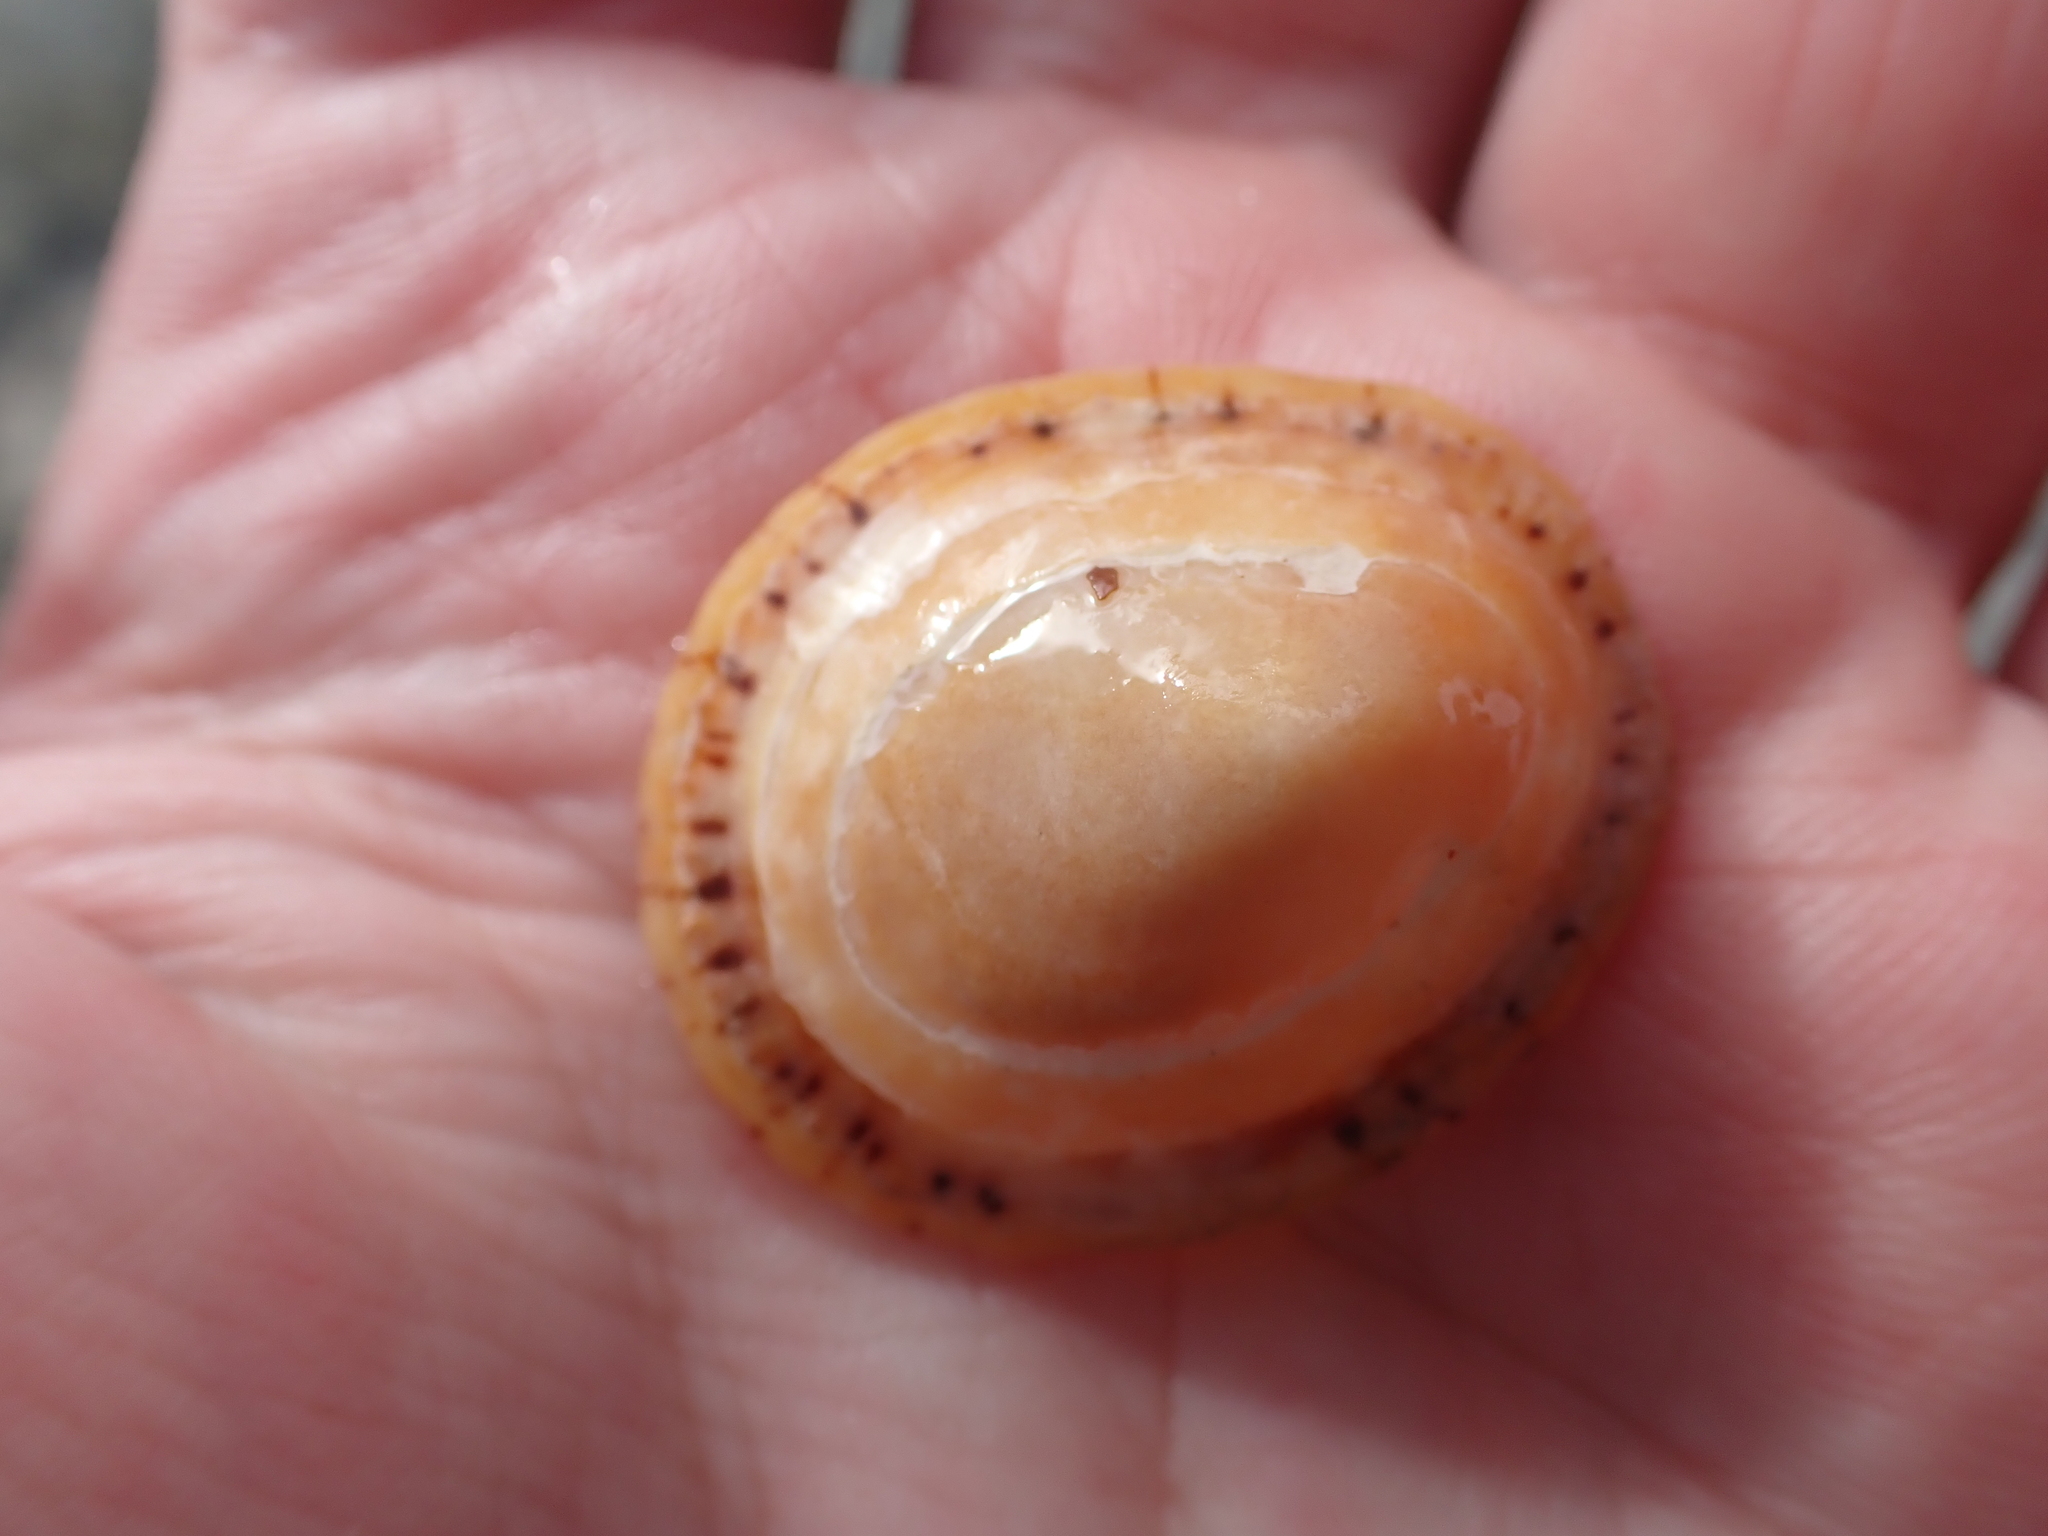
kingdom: Animalia
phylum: Mollusca
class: Gastropoda
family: Nacellidae
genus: Cellana
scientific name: Cellana tramoserica
